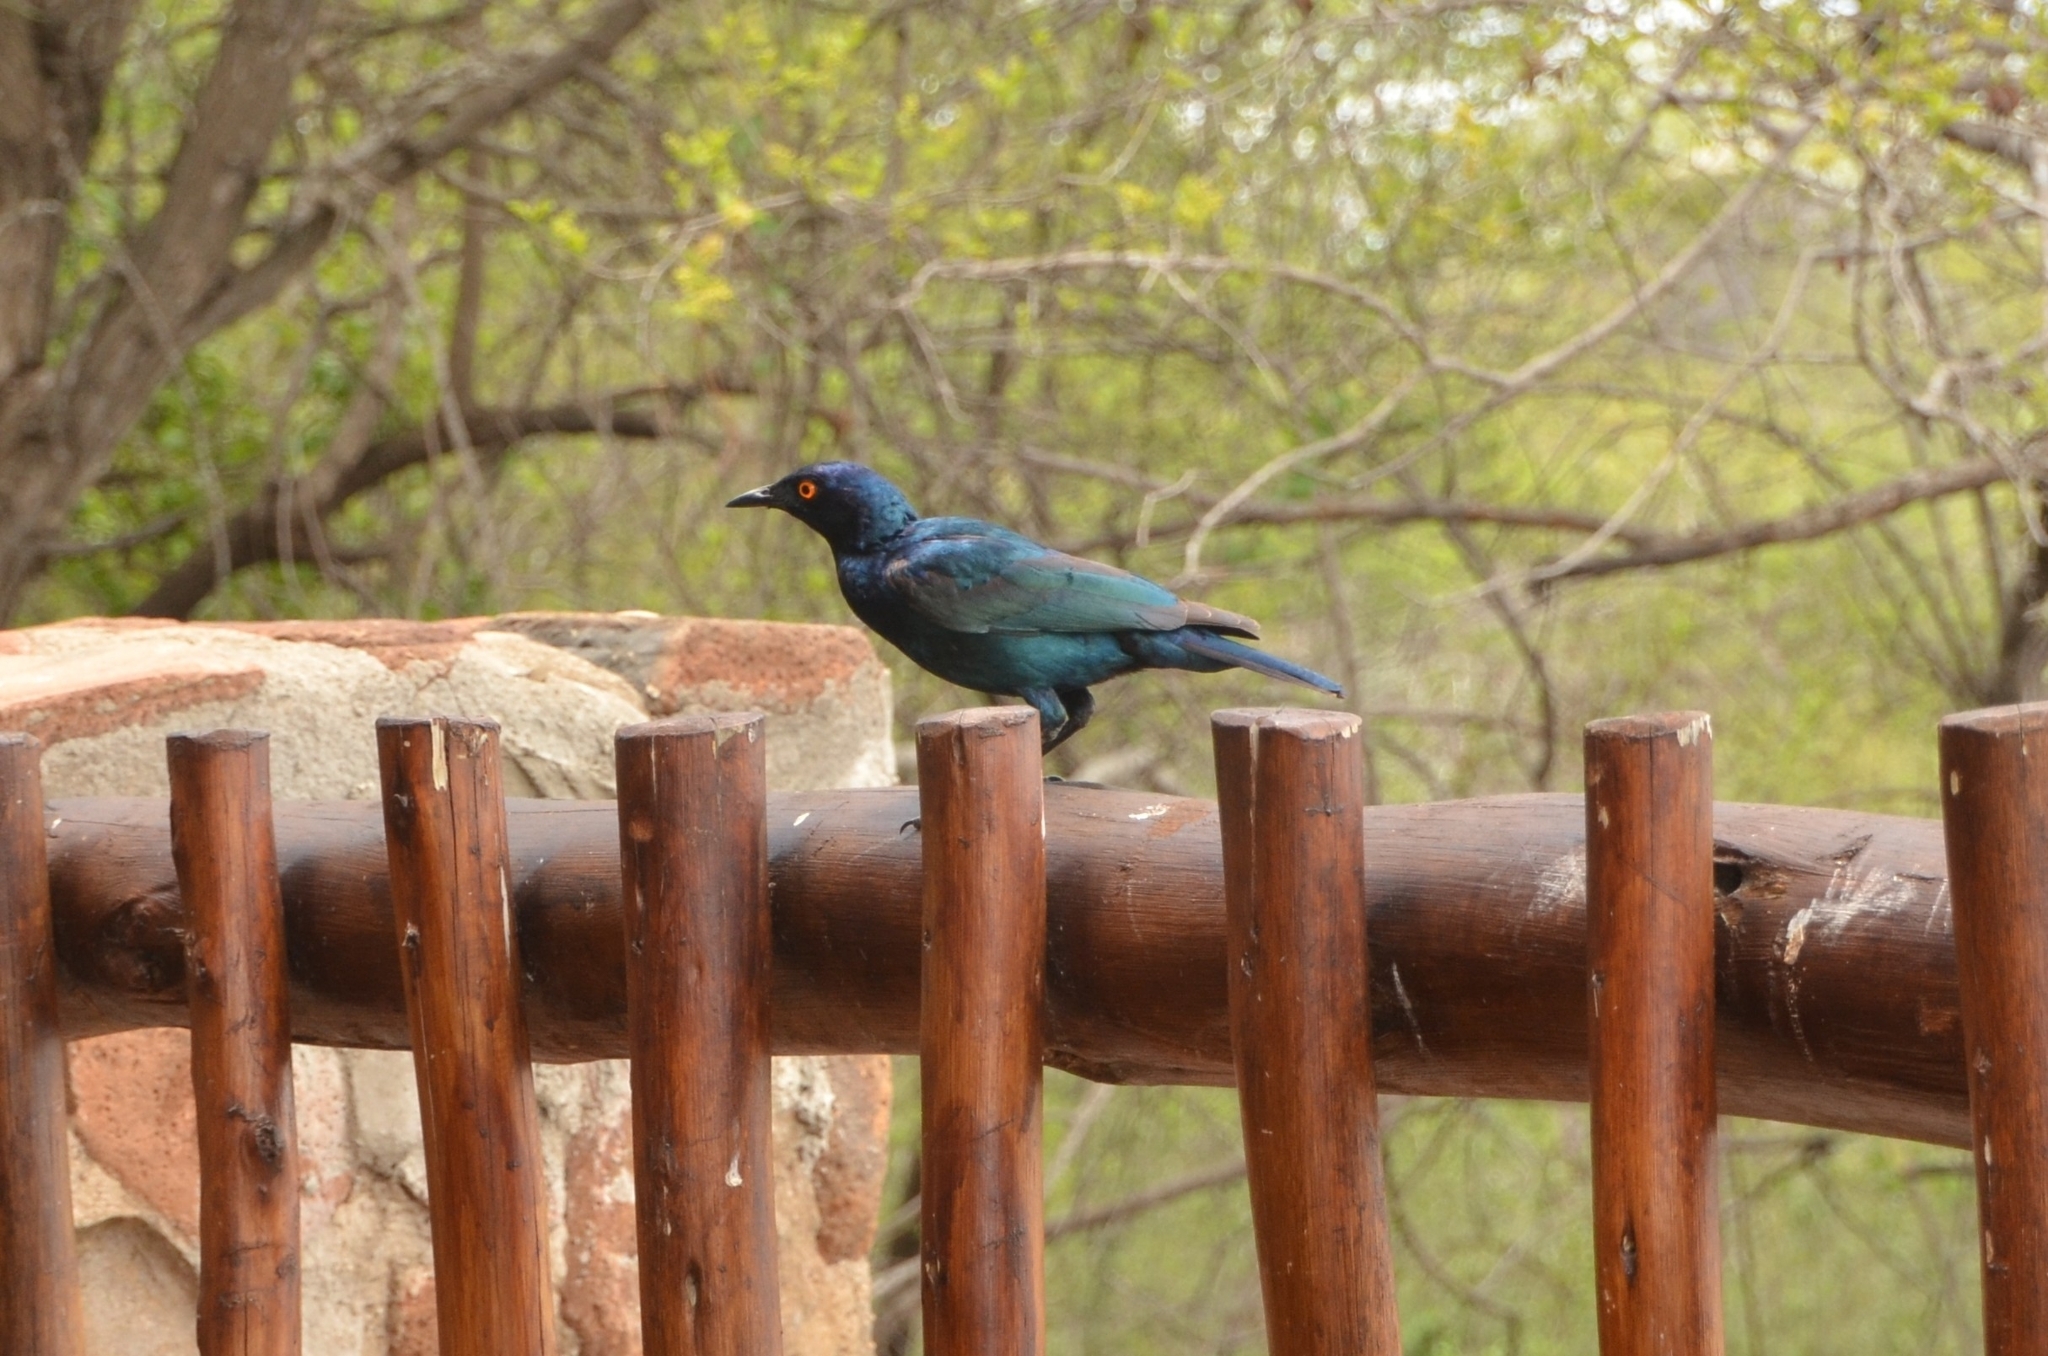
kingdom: Animalia
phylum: Chordata
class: Aves
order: Passeriformes
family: Sturnidae
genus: Lamprotornis
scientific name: Lamprotornis nitens
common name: Cape starling
